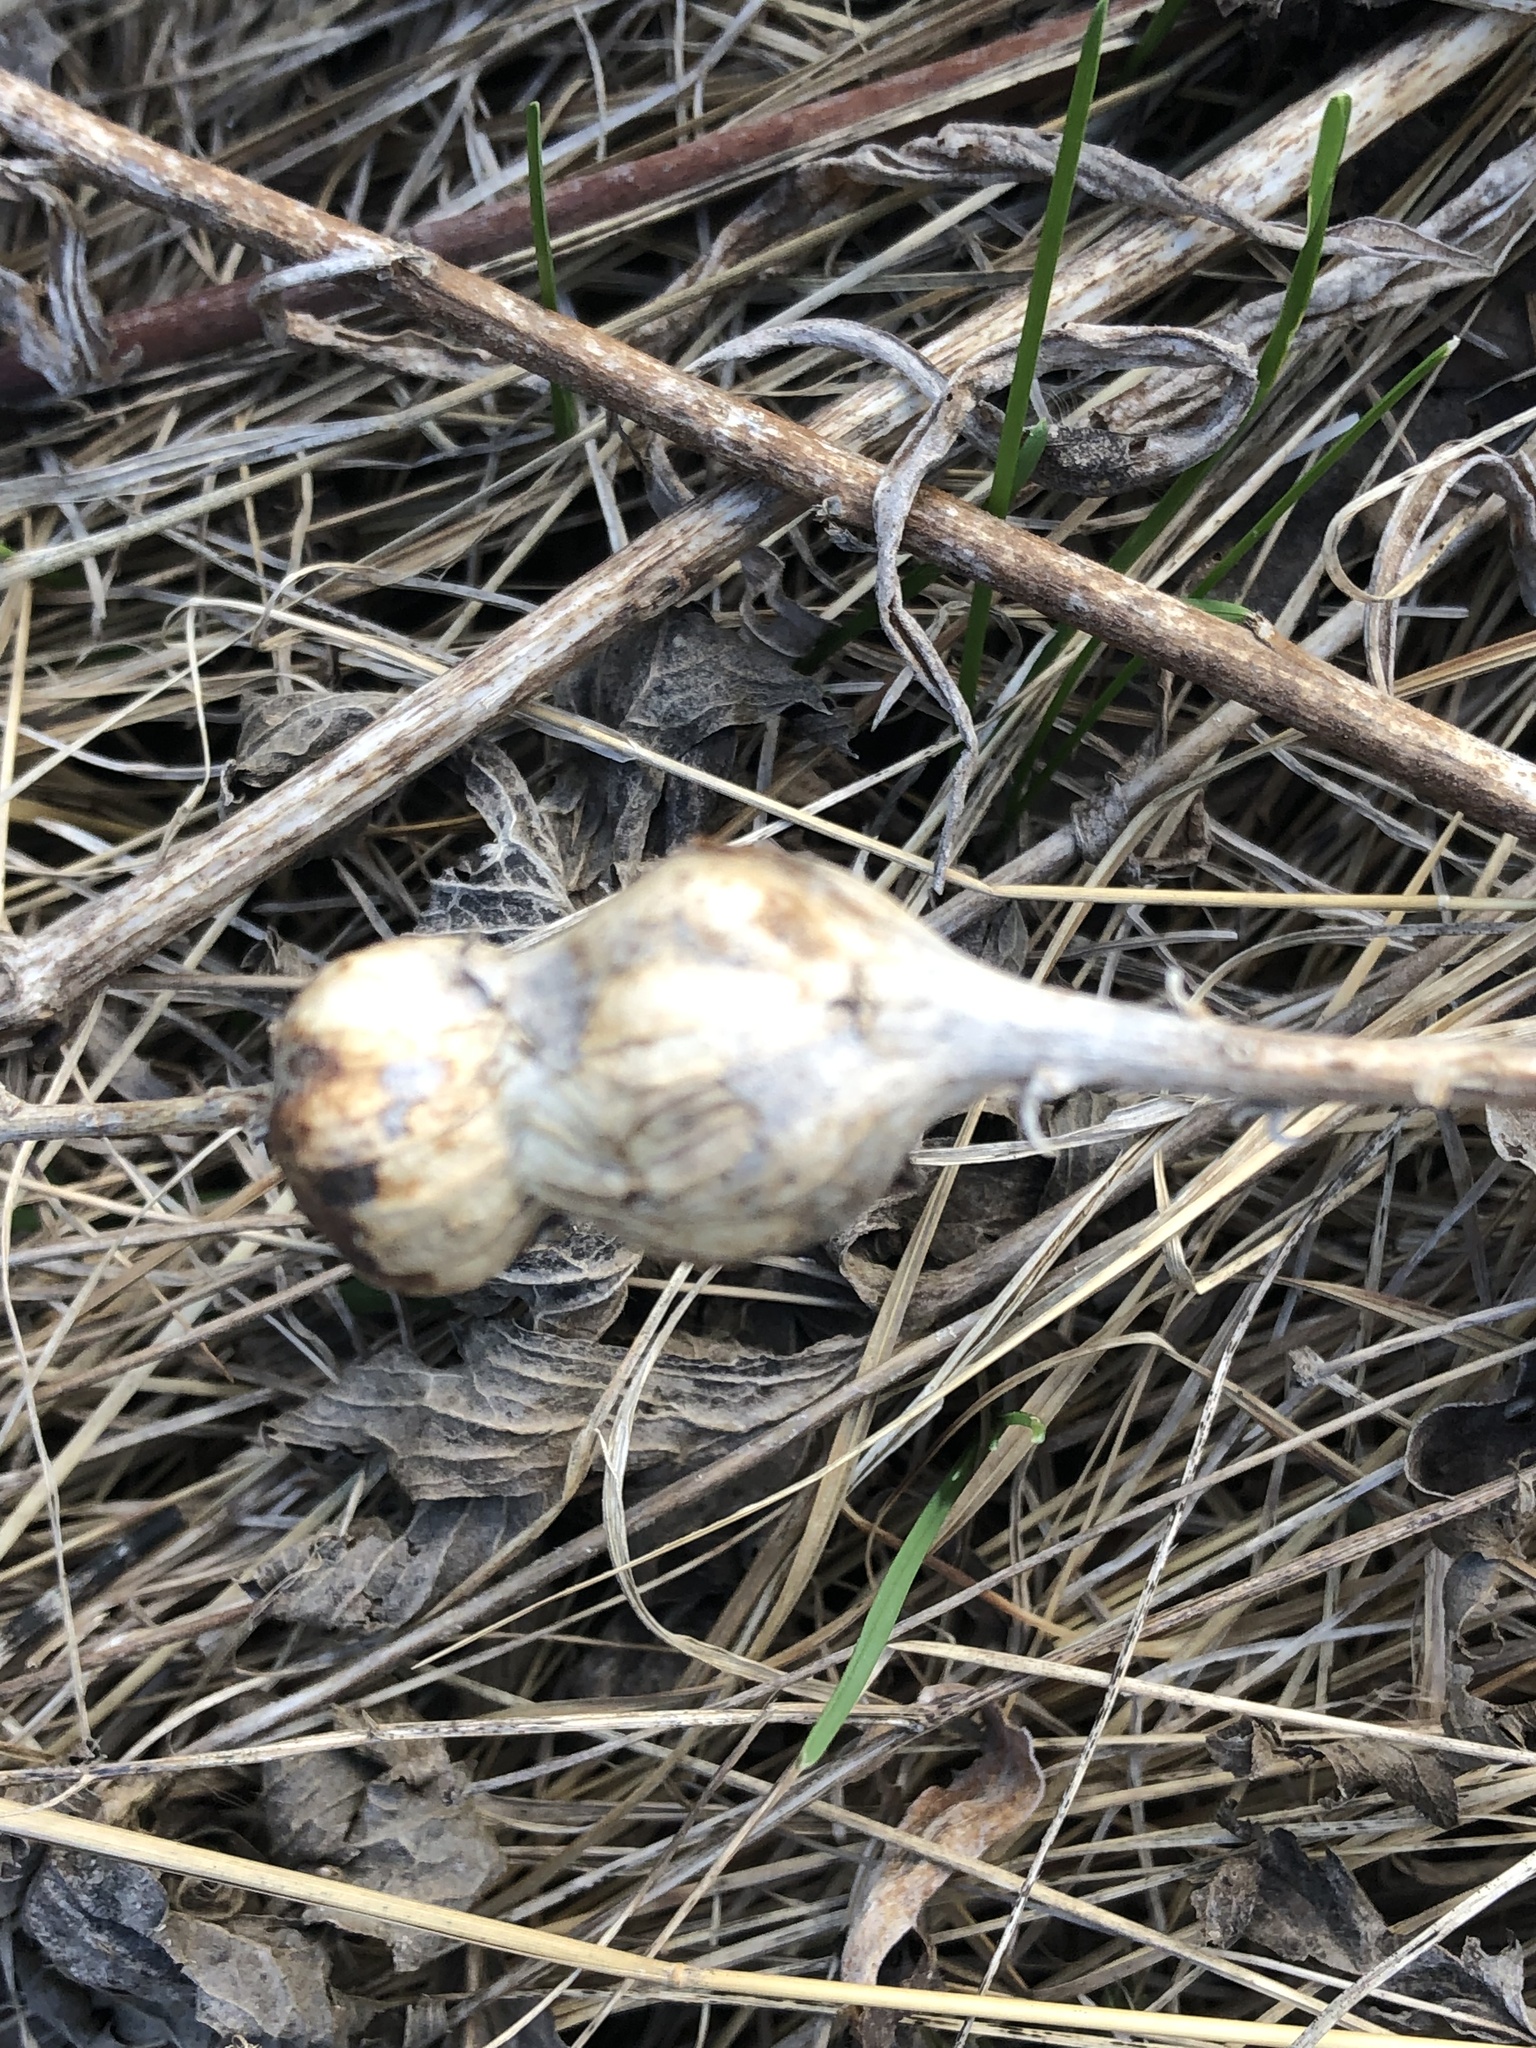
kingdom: Animalia
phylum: Arthropoda
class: Insecta
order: Diptera
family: Tephritidae
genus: Eurosta
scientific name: Eurosta solidaginis
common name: Goldenrod gall fly
